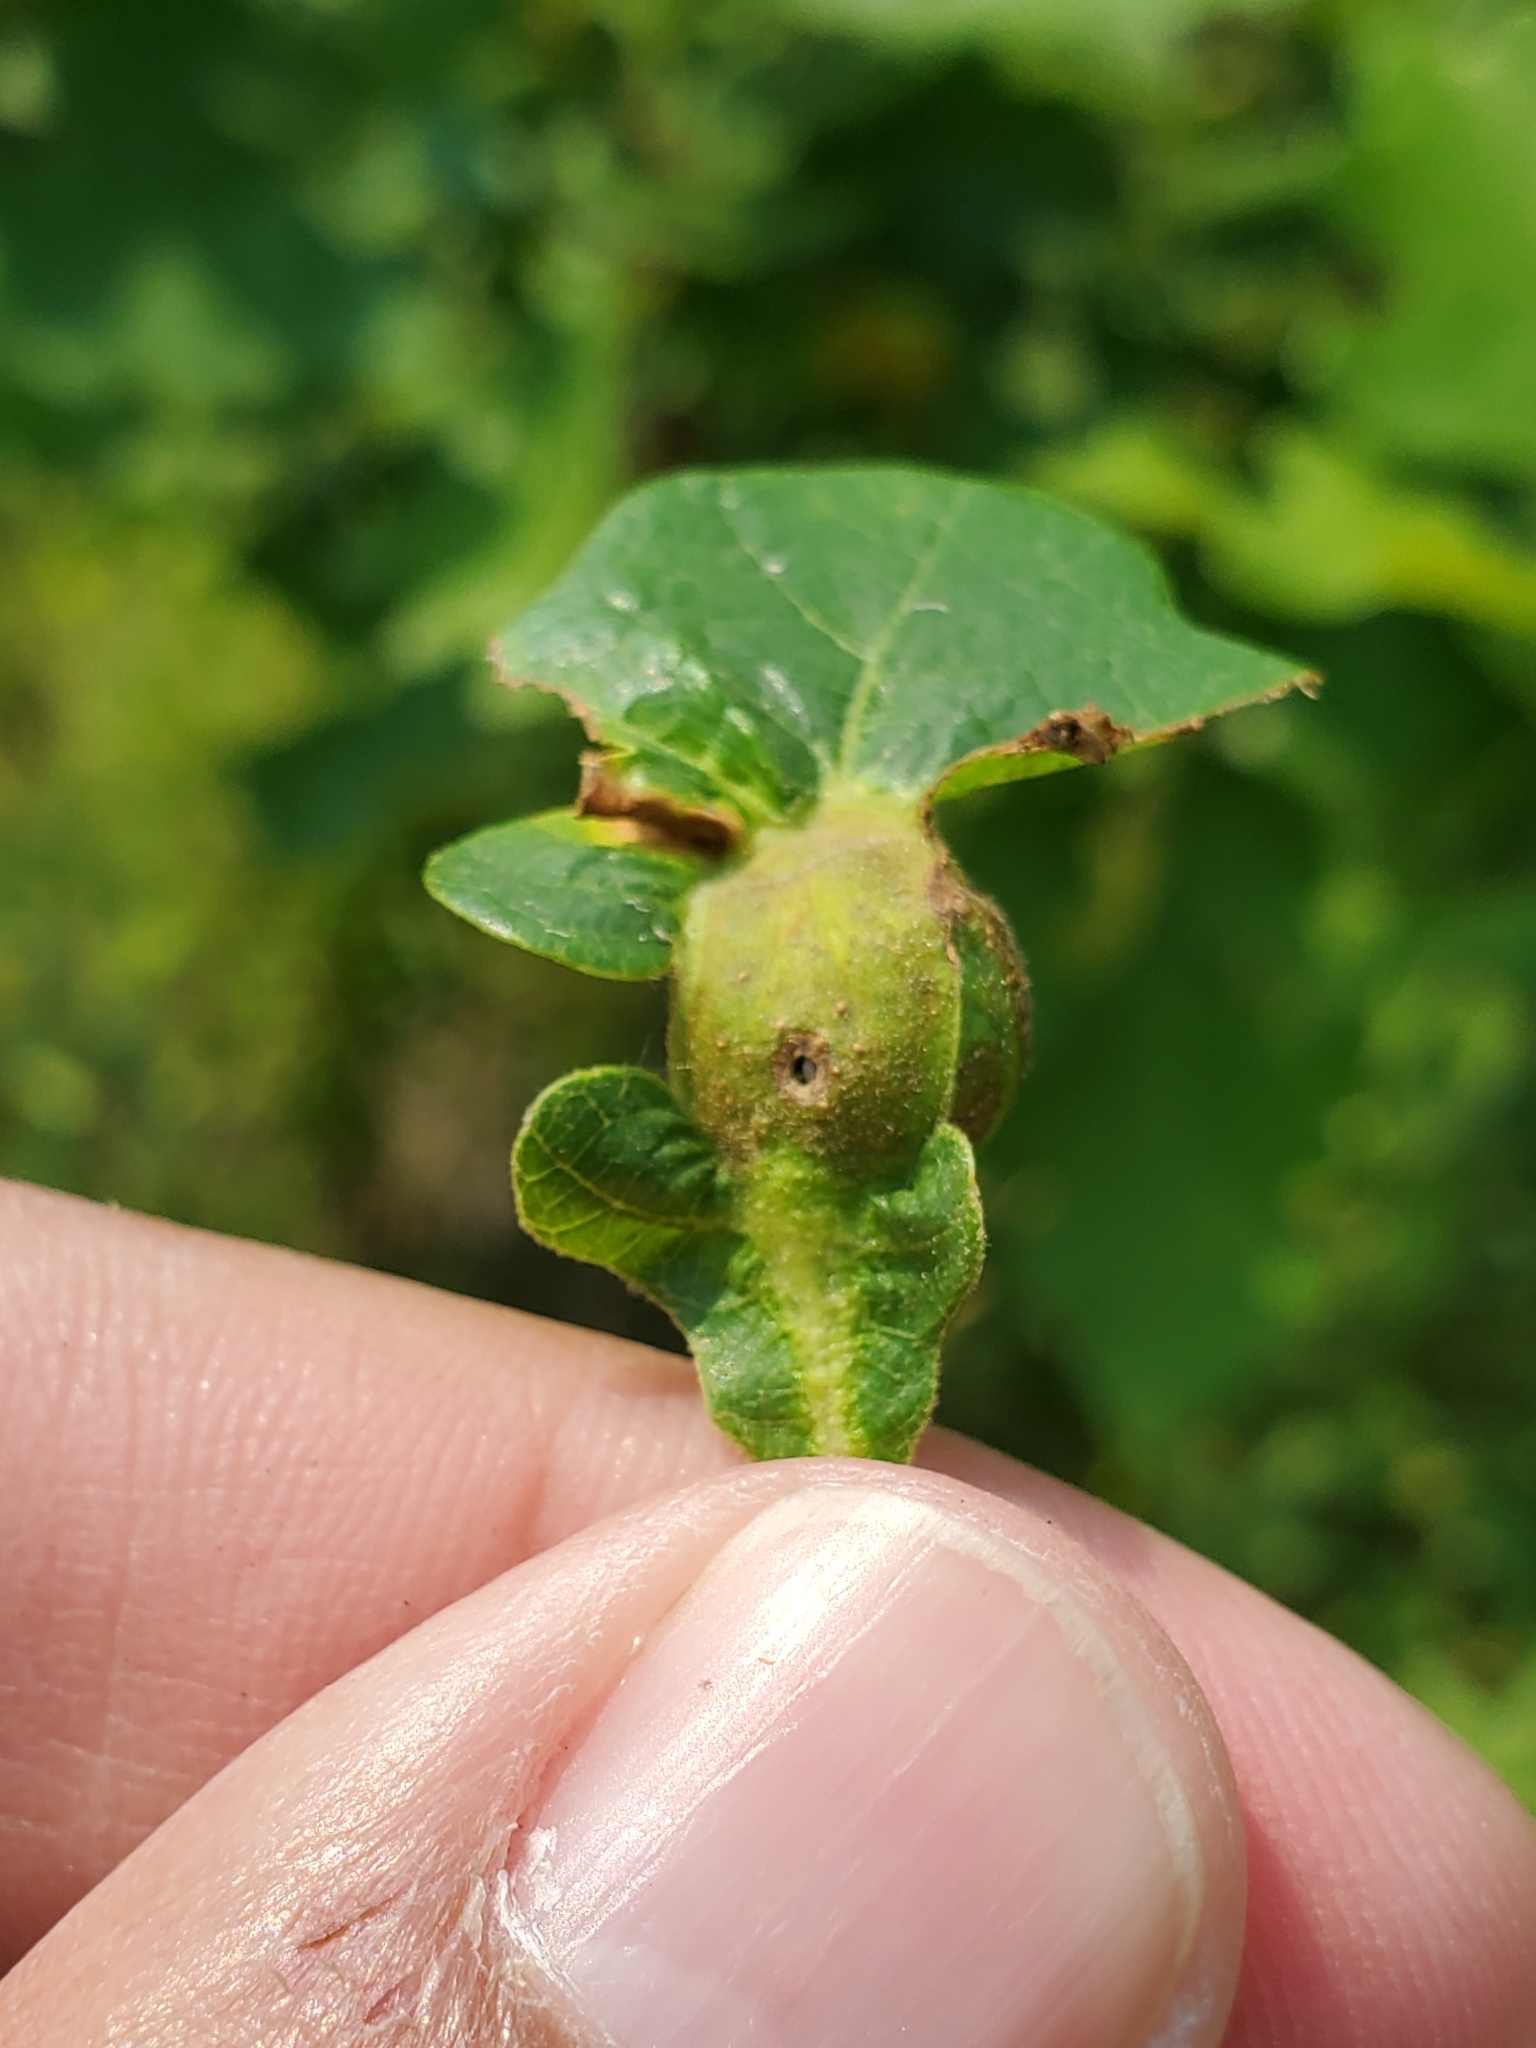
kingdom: Animalia
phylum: Arthropoda
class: Insecta
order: Hymenoptera
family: Cynipidae
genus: Andricus
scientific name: Andricus
